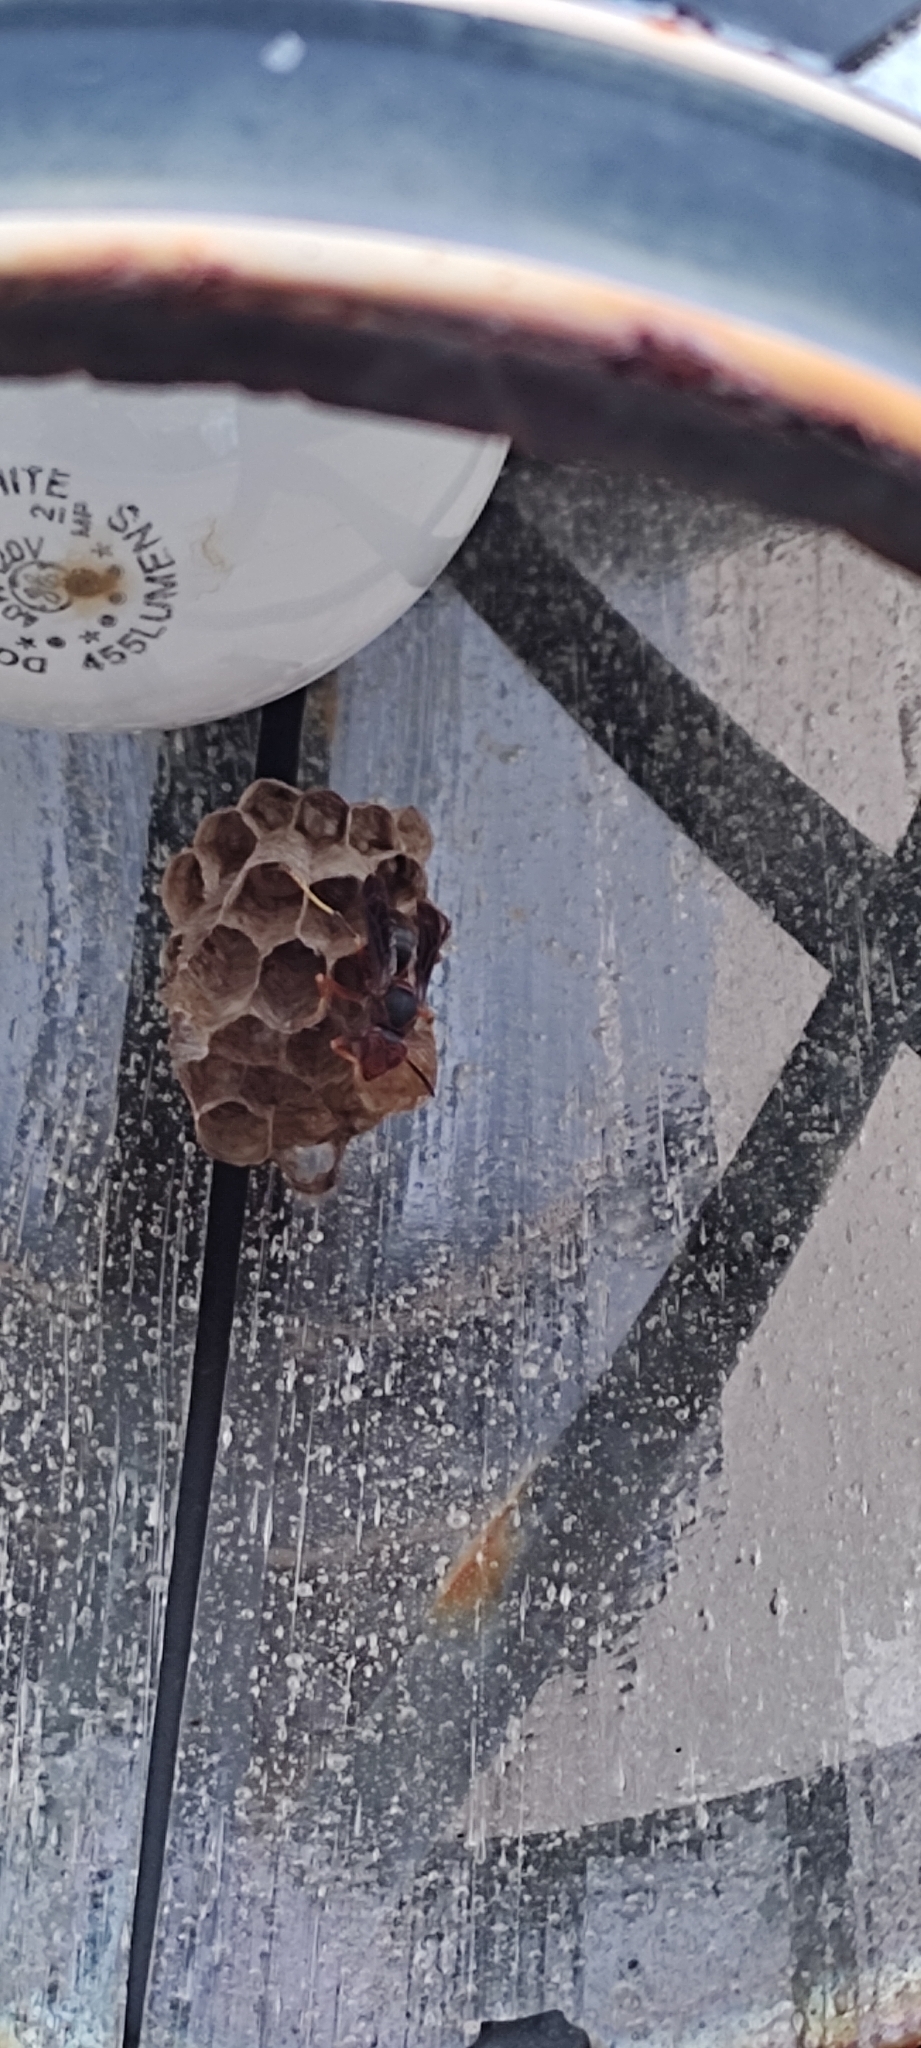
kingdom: Animalia
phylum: Arthropoda
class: Insecta
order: Hymenoptera
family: Vespidae
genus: Fuscopolistes
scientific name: Fuscopolistes
